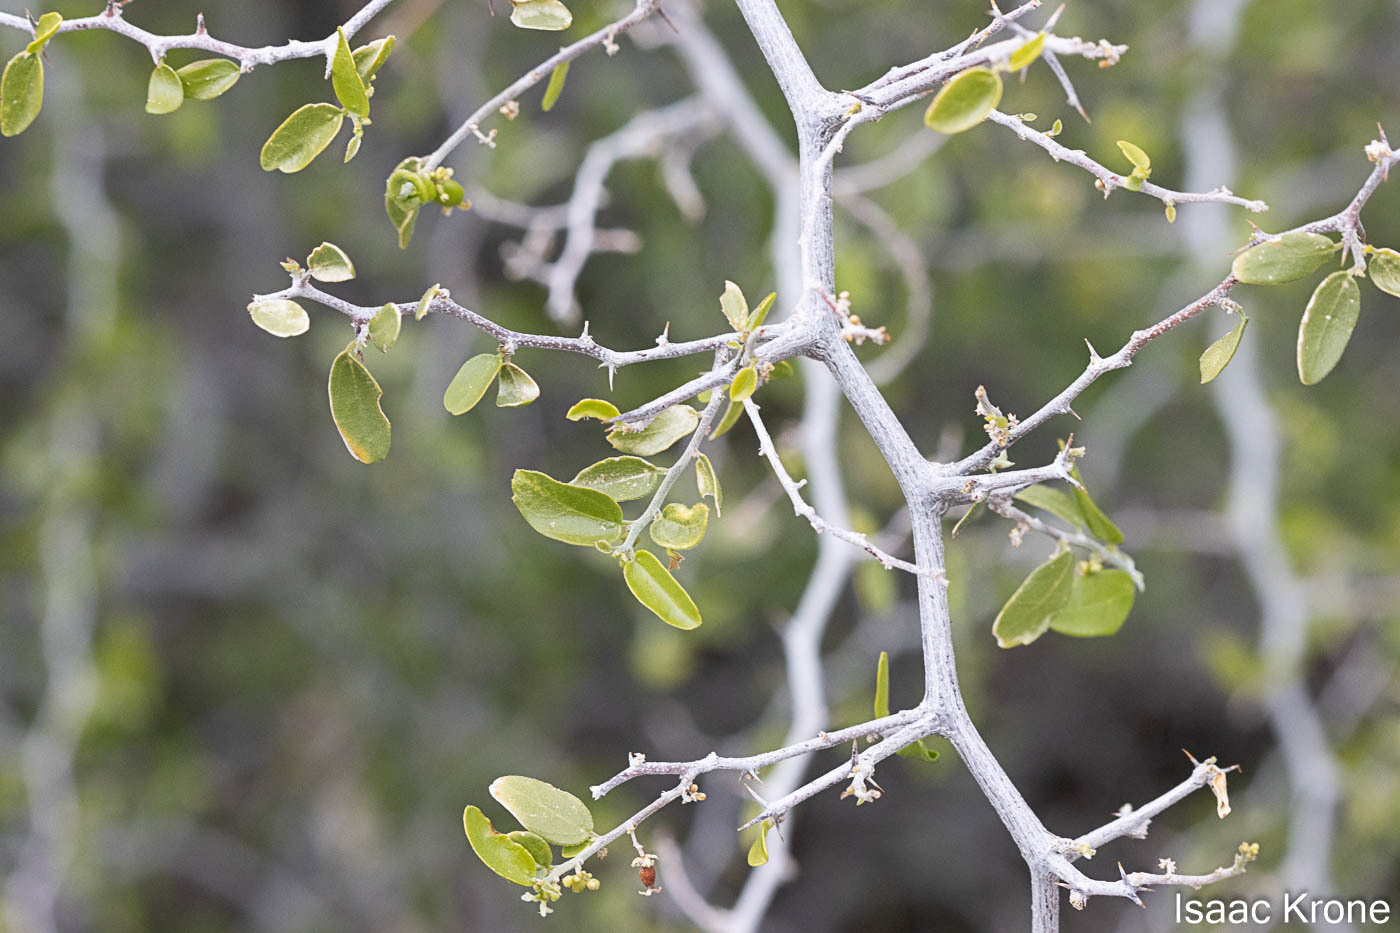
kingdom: Plantae
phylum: Tracheophyta
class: Magnoliopsida
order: Rosales
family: Cannabaceae
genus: Celtis
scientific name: Celtis pallida
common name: Desert hackberry
